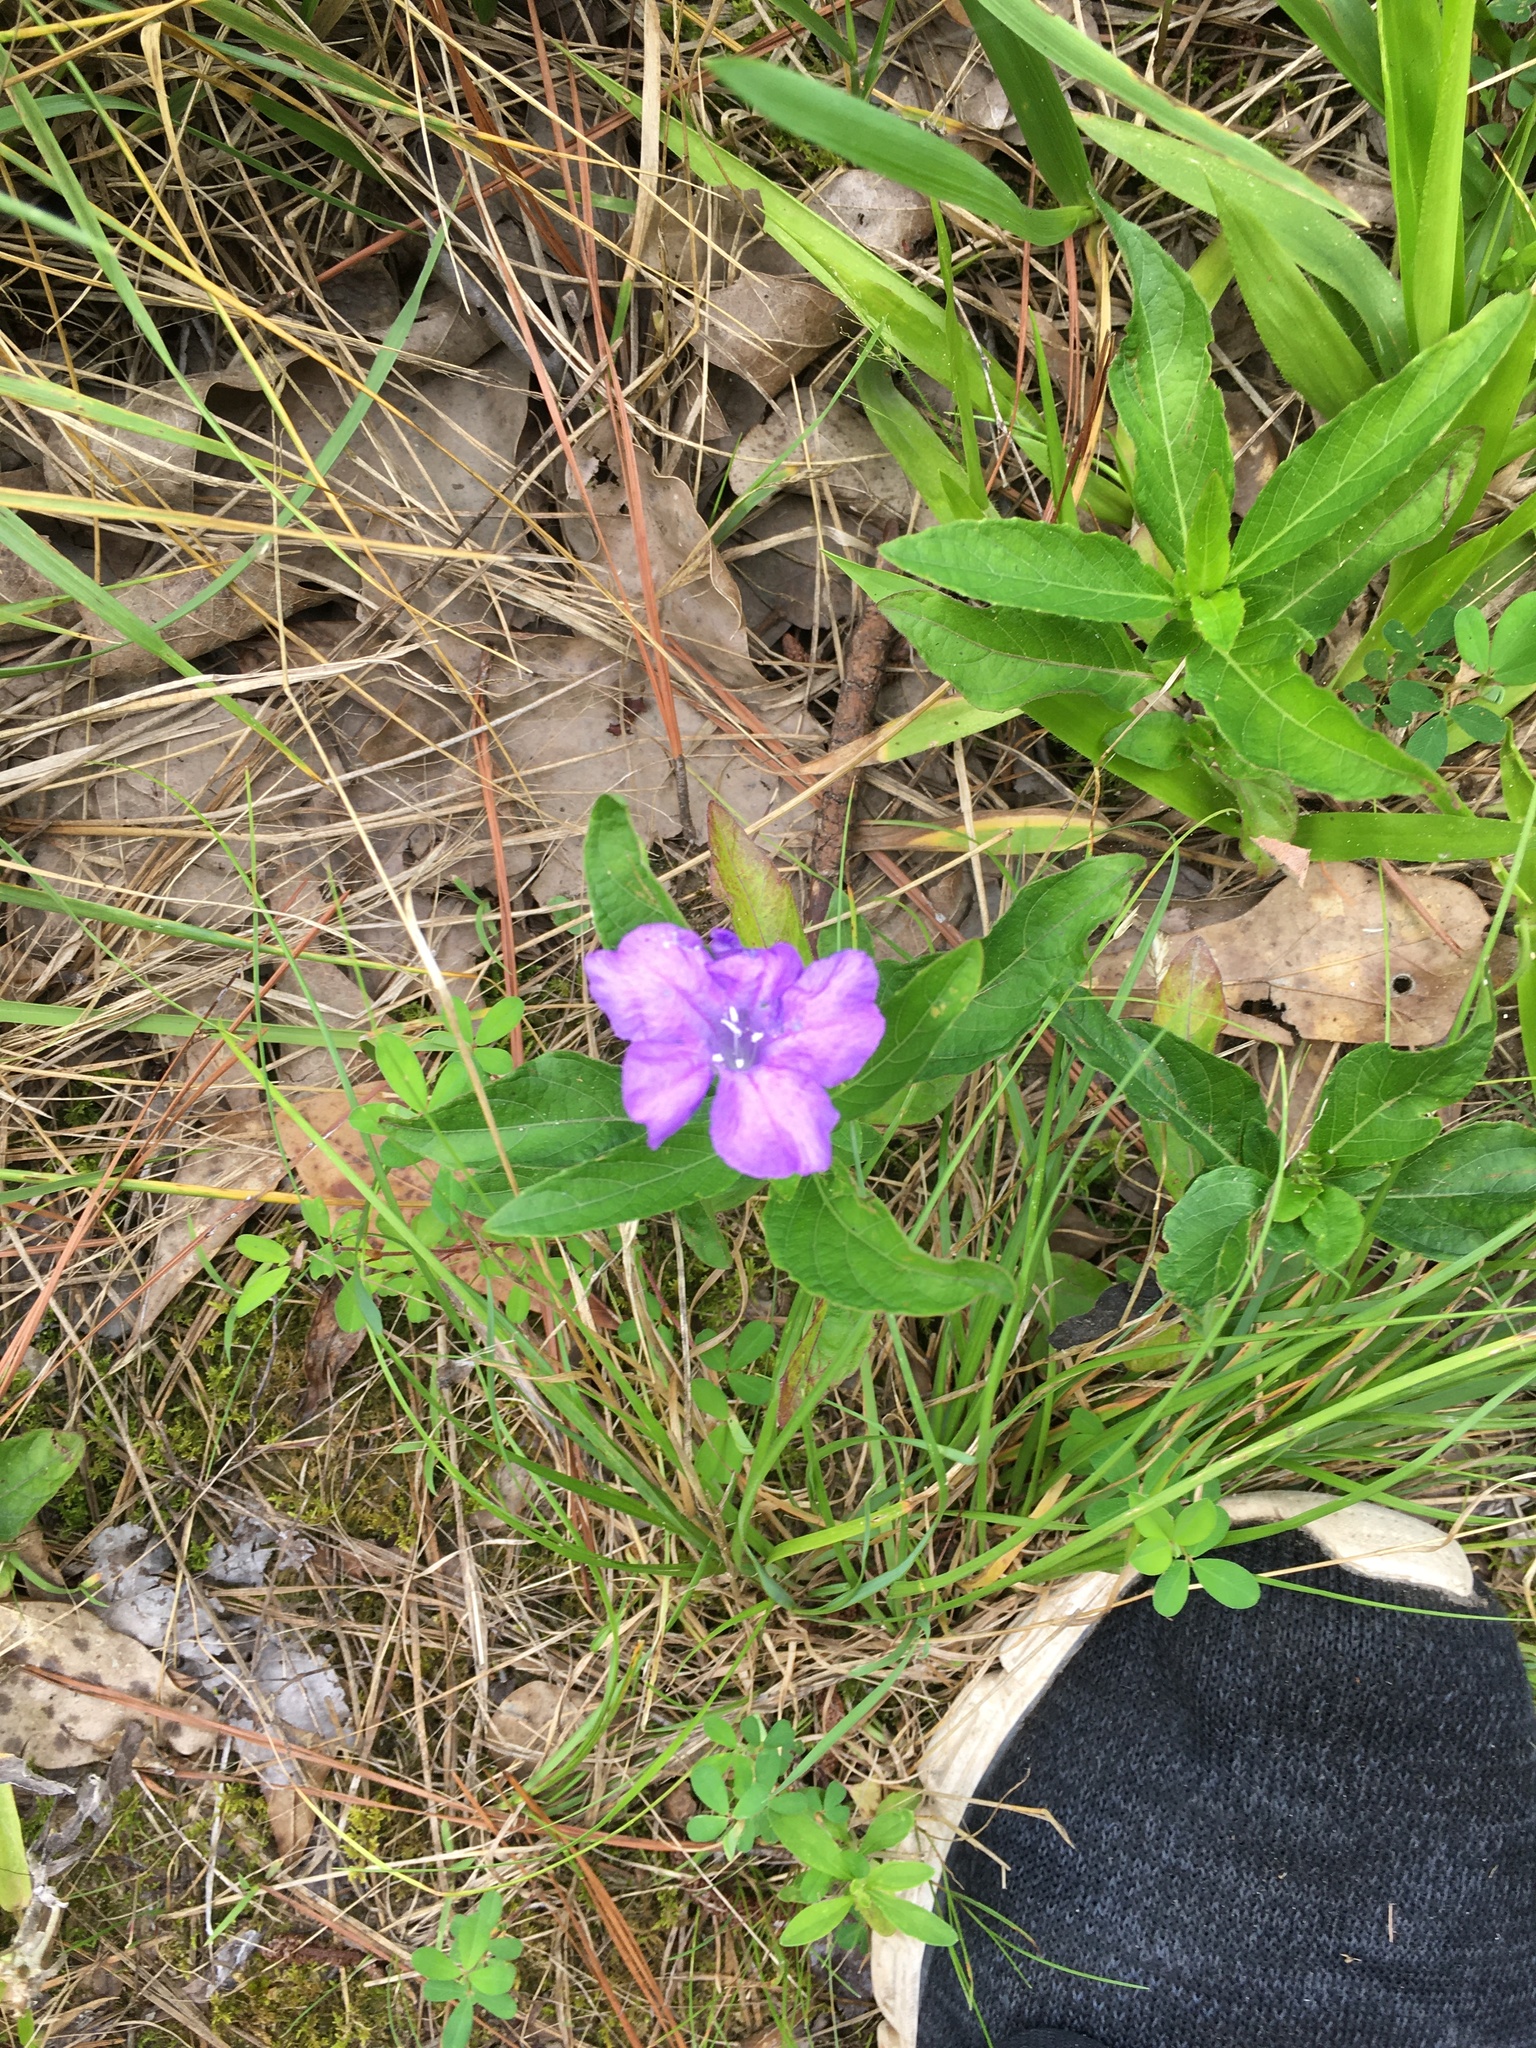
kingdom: Plantae
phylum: Tracheophyta
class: Magnoliopsida
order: Lamiales
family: Acanthaceae
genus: Ruellia
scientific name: Ruellia caroliniensis
